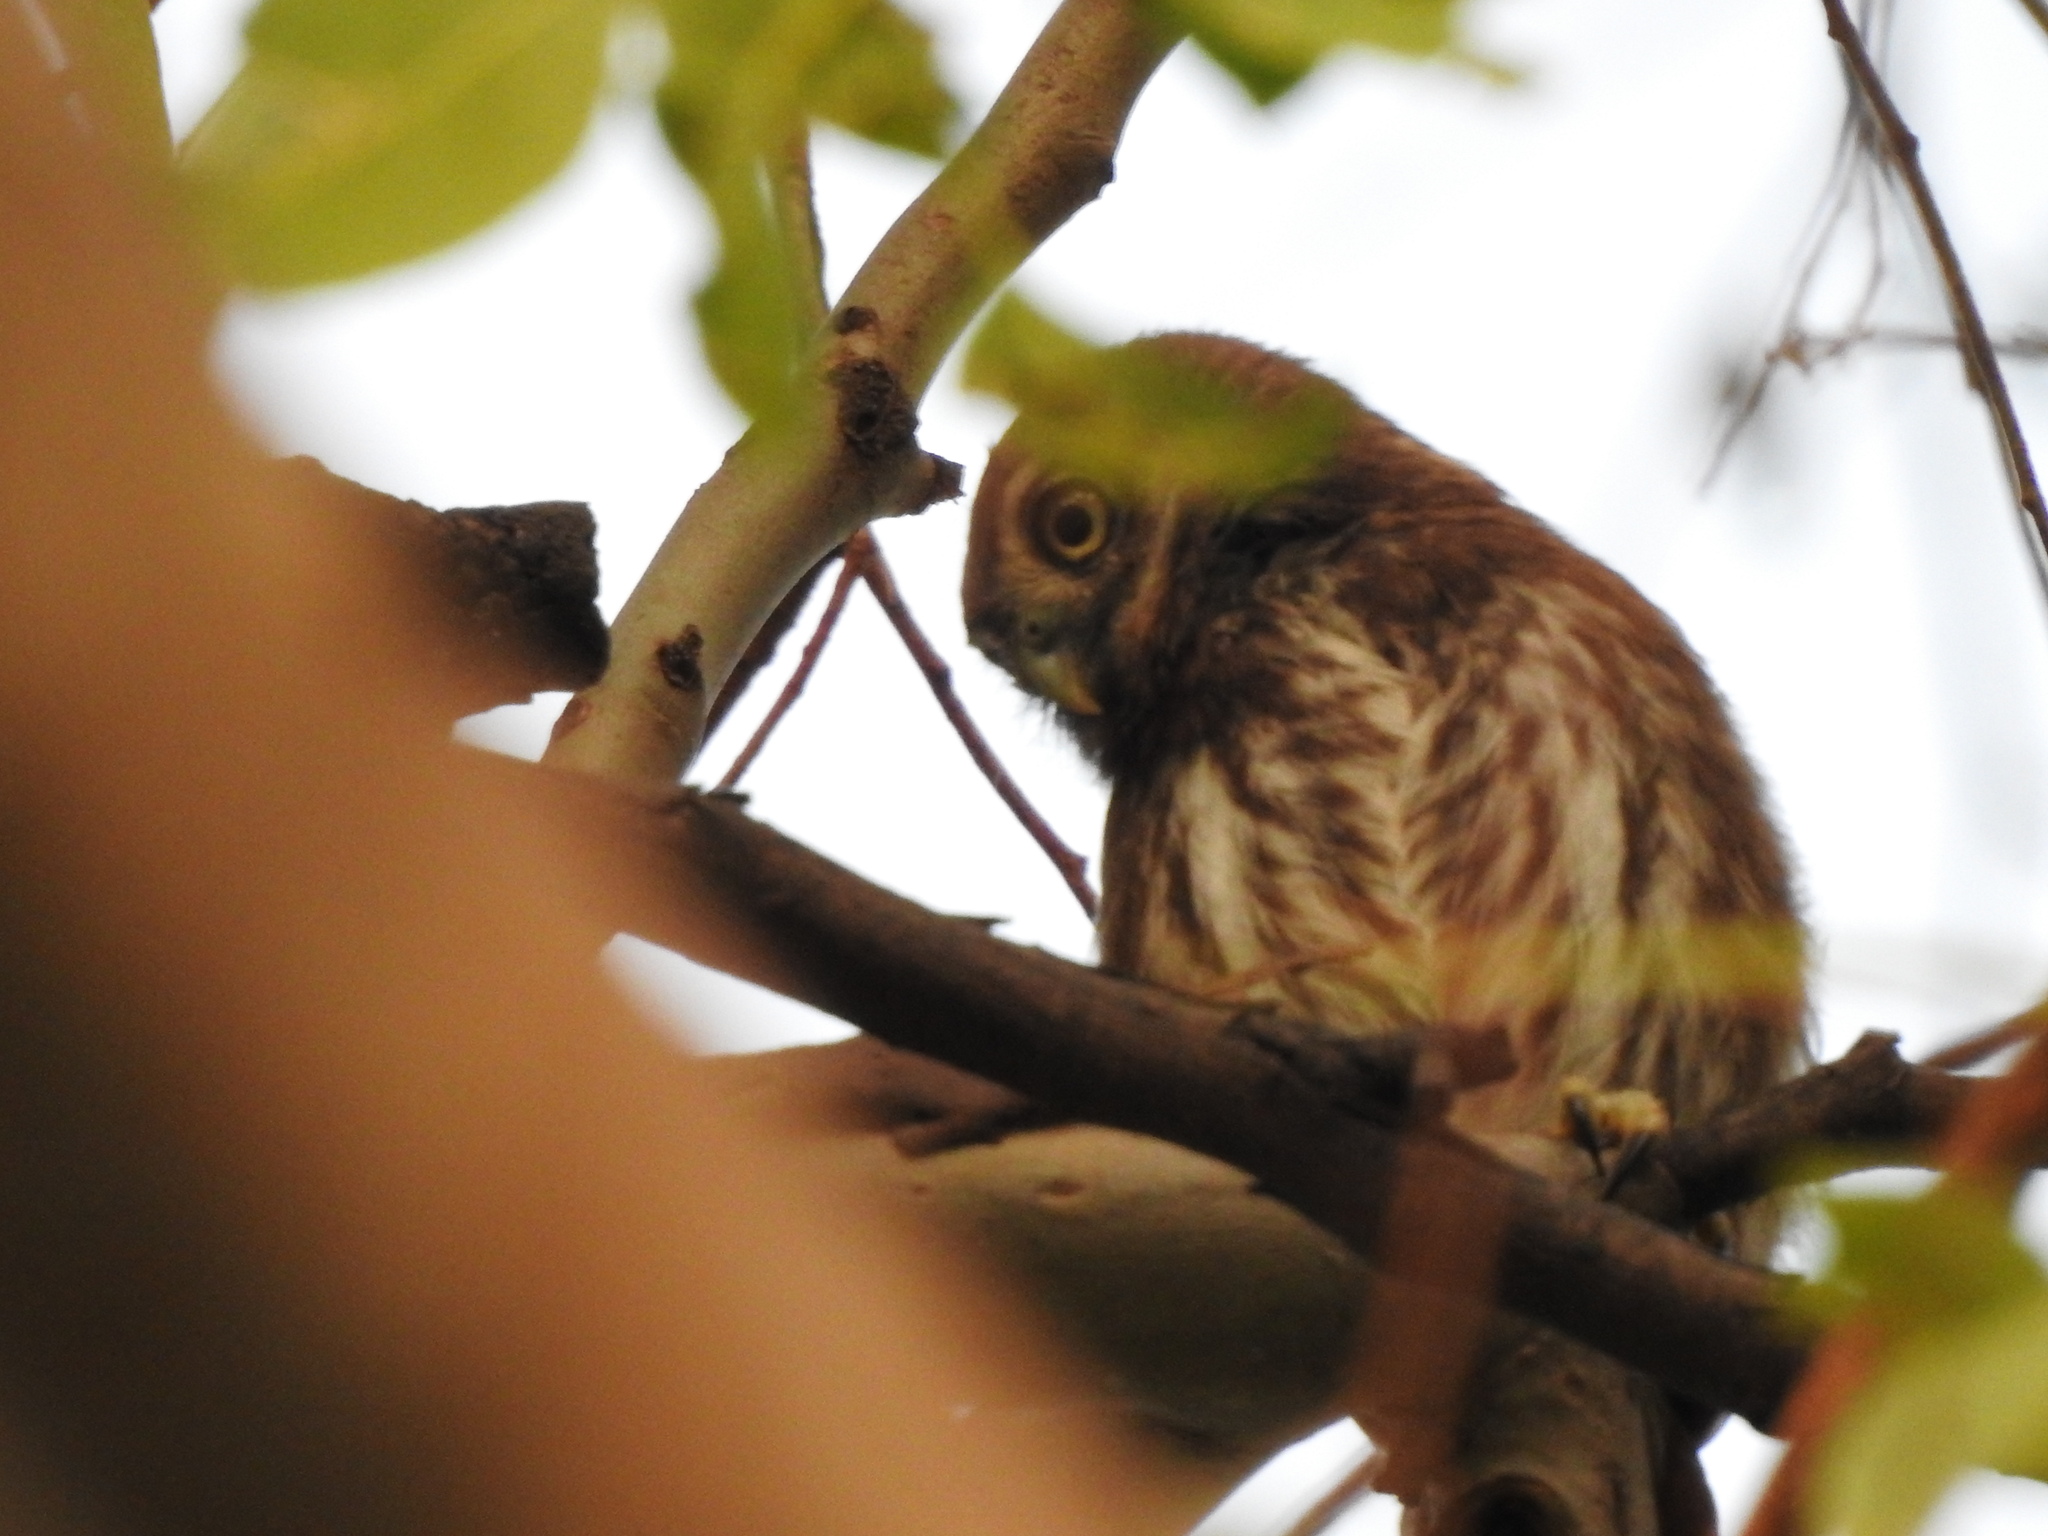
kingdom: Animalia
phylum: Chordata
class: Aves
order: Strigiformes
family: Strigidae
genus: Glaucidium
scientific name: Glaucidium brasilianum
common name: Ferruginous pygmy-owl
